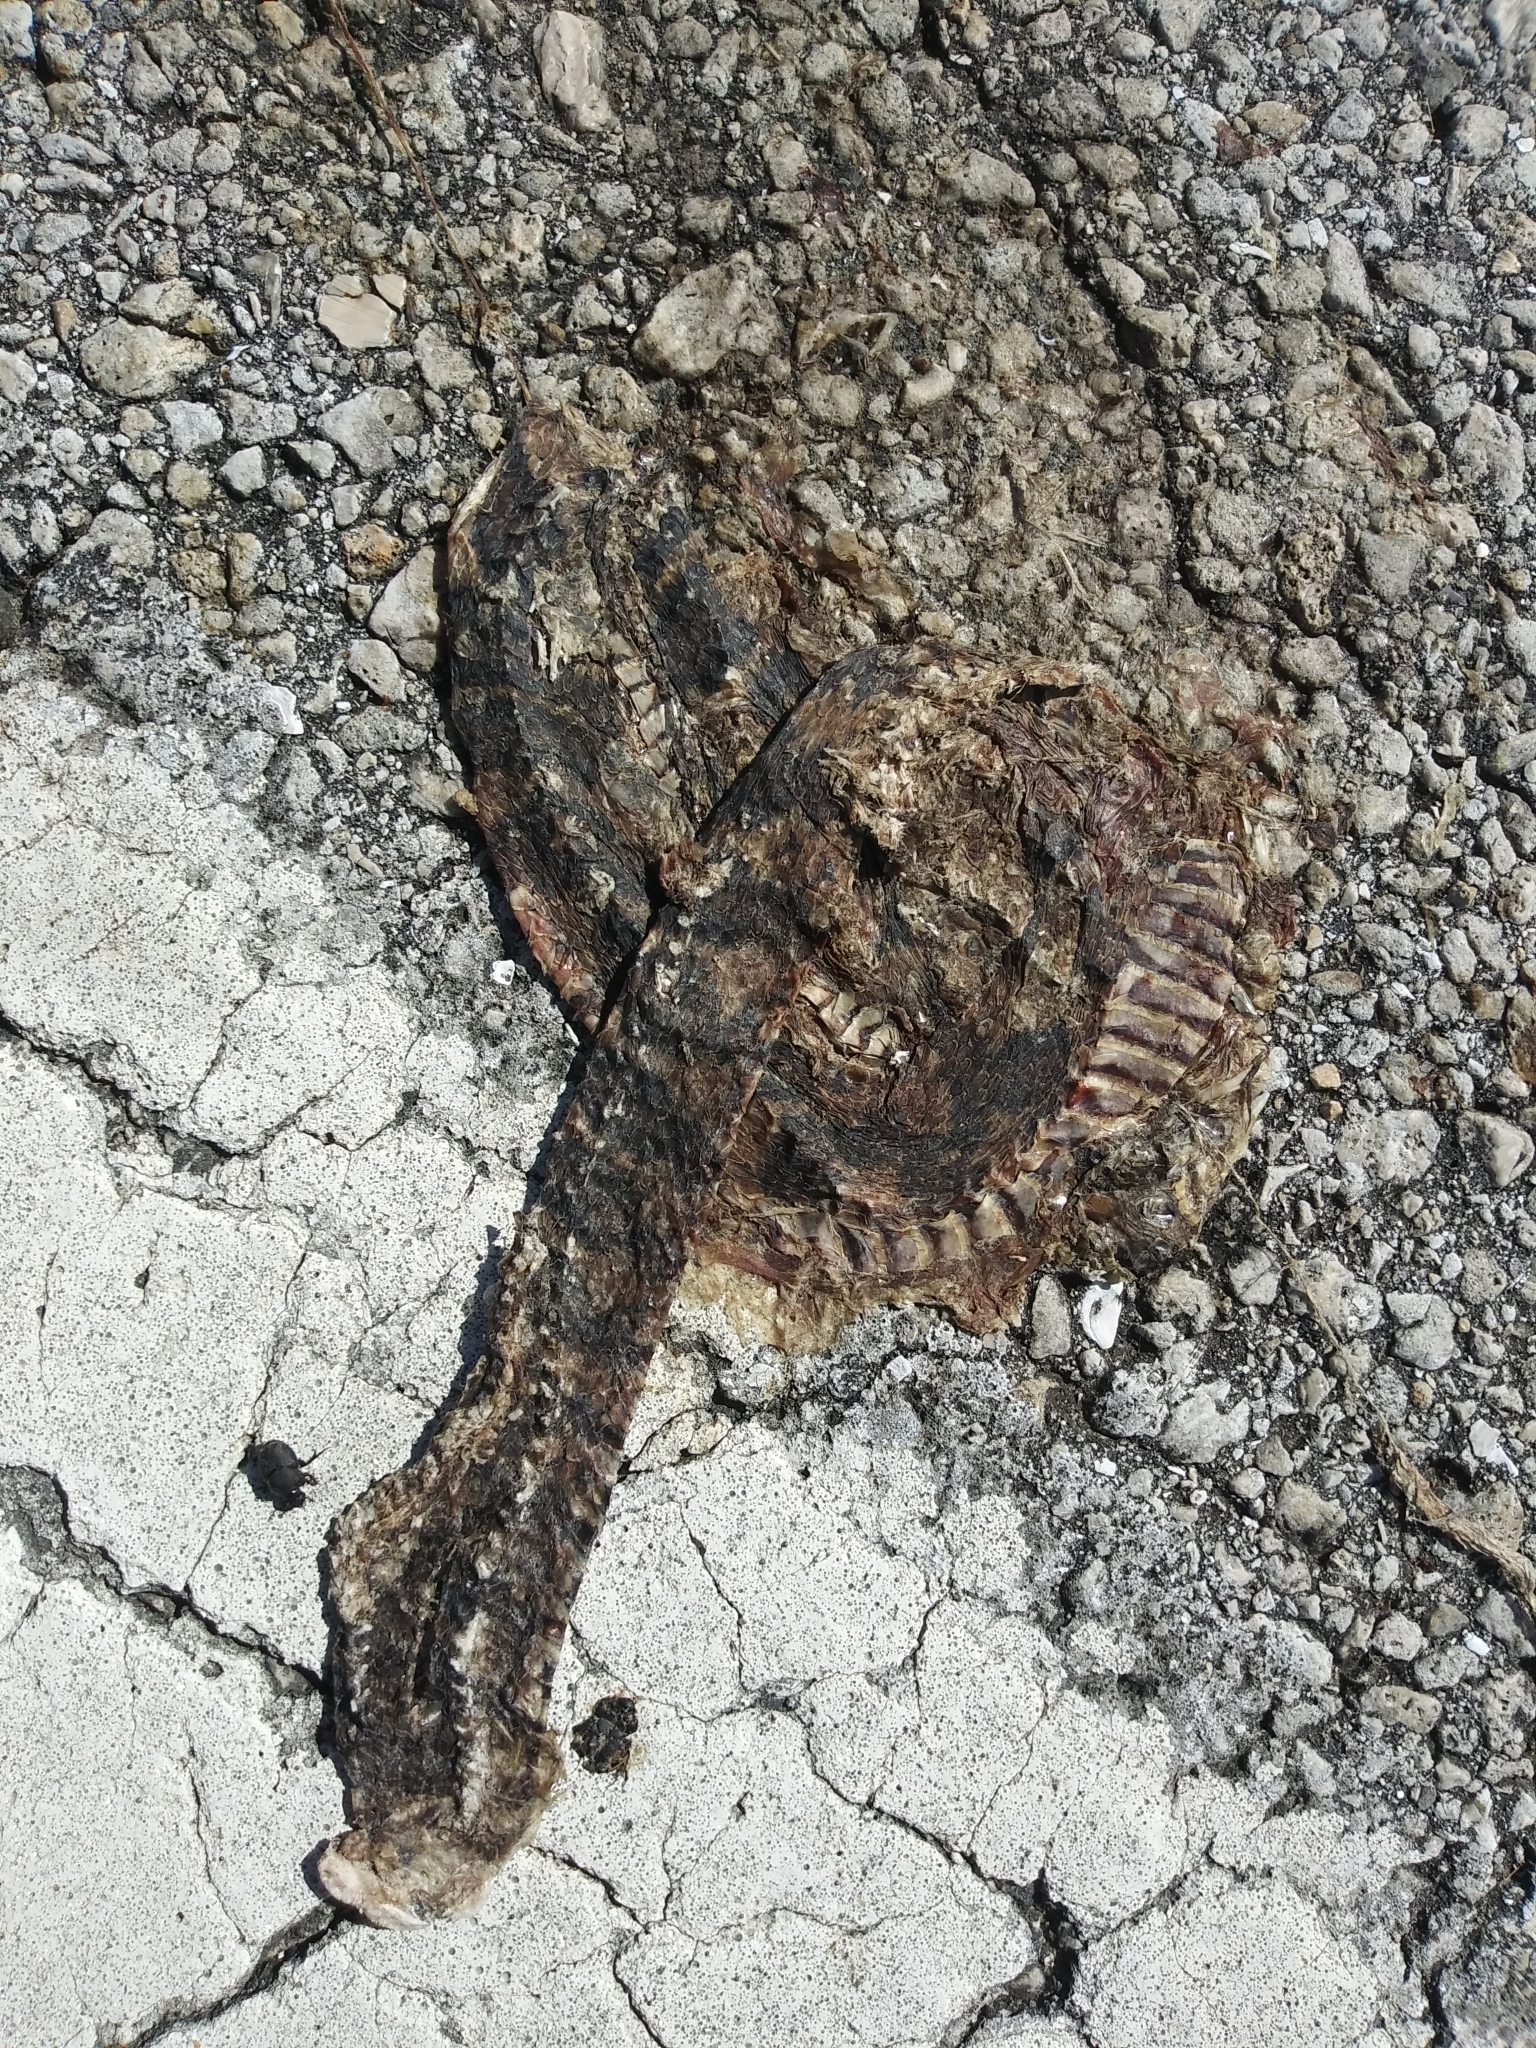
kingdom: Animalia
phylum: Chordata
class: Squamata
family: Colubridae
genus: Nerodia
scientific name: Nerodia fasciata
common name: Southern water snake
